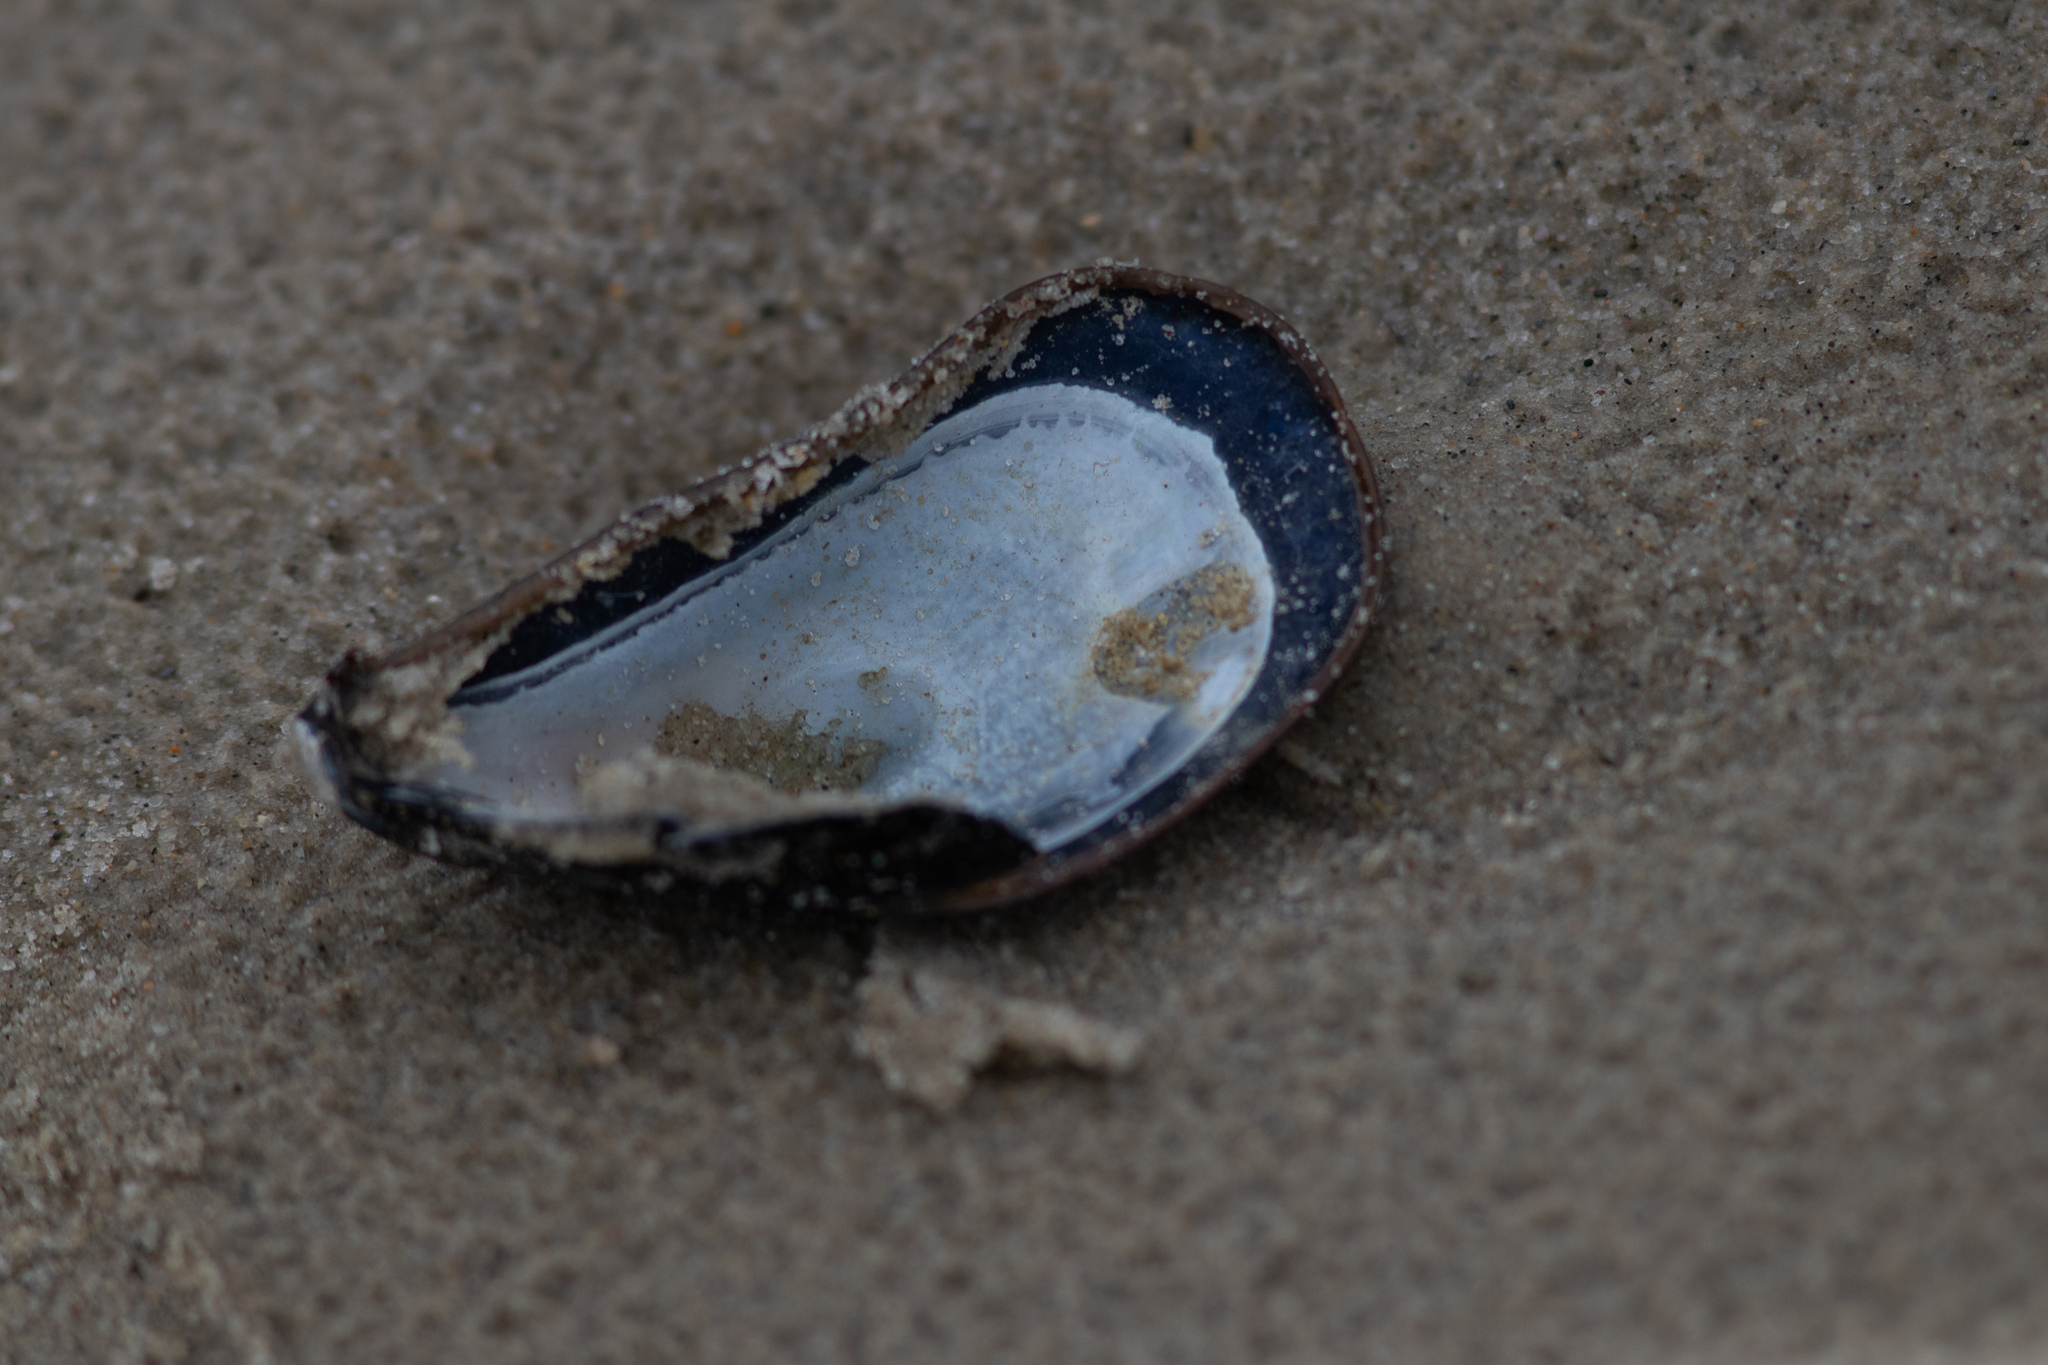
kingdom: Animalia
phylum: Mollusca
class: Bivalvia
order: Mytilida
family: Mytilidae
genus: Mytilus
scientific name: Mytilus edulis
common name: Blue mussel
